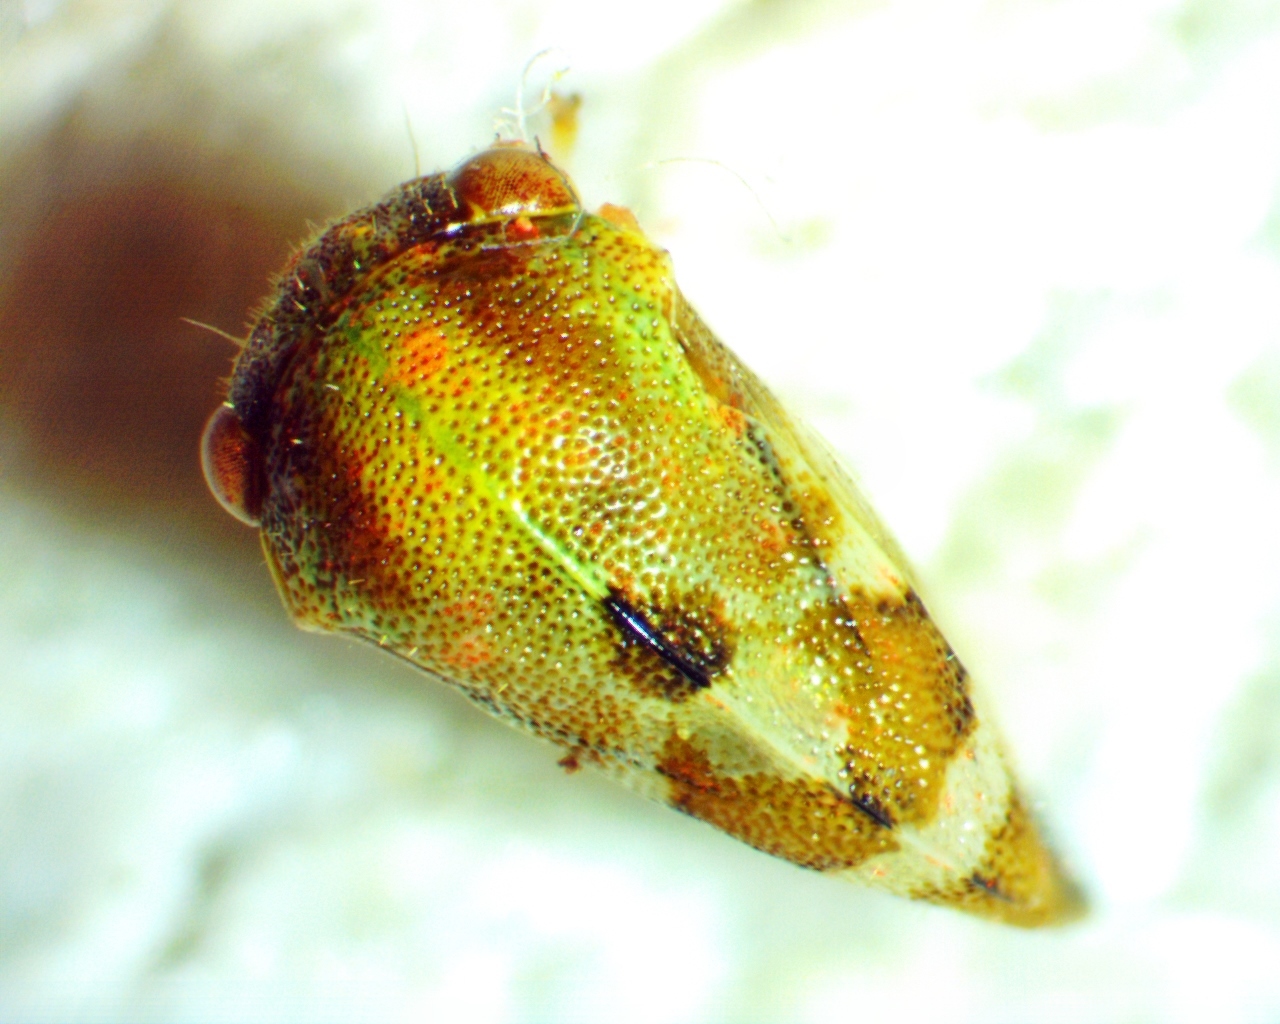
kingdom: Animalia
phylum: Arthropoda
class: Insecta
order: Hemiptera
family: Membracidae
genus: Cyrtolobus
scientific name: Cyrtolobus togatus
